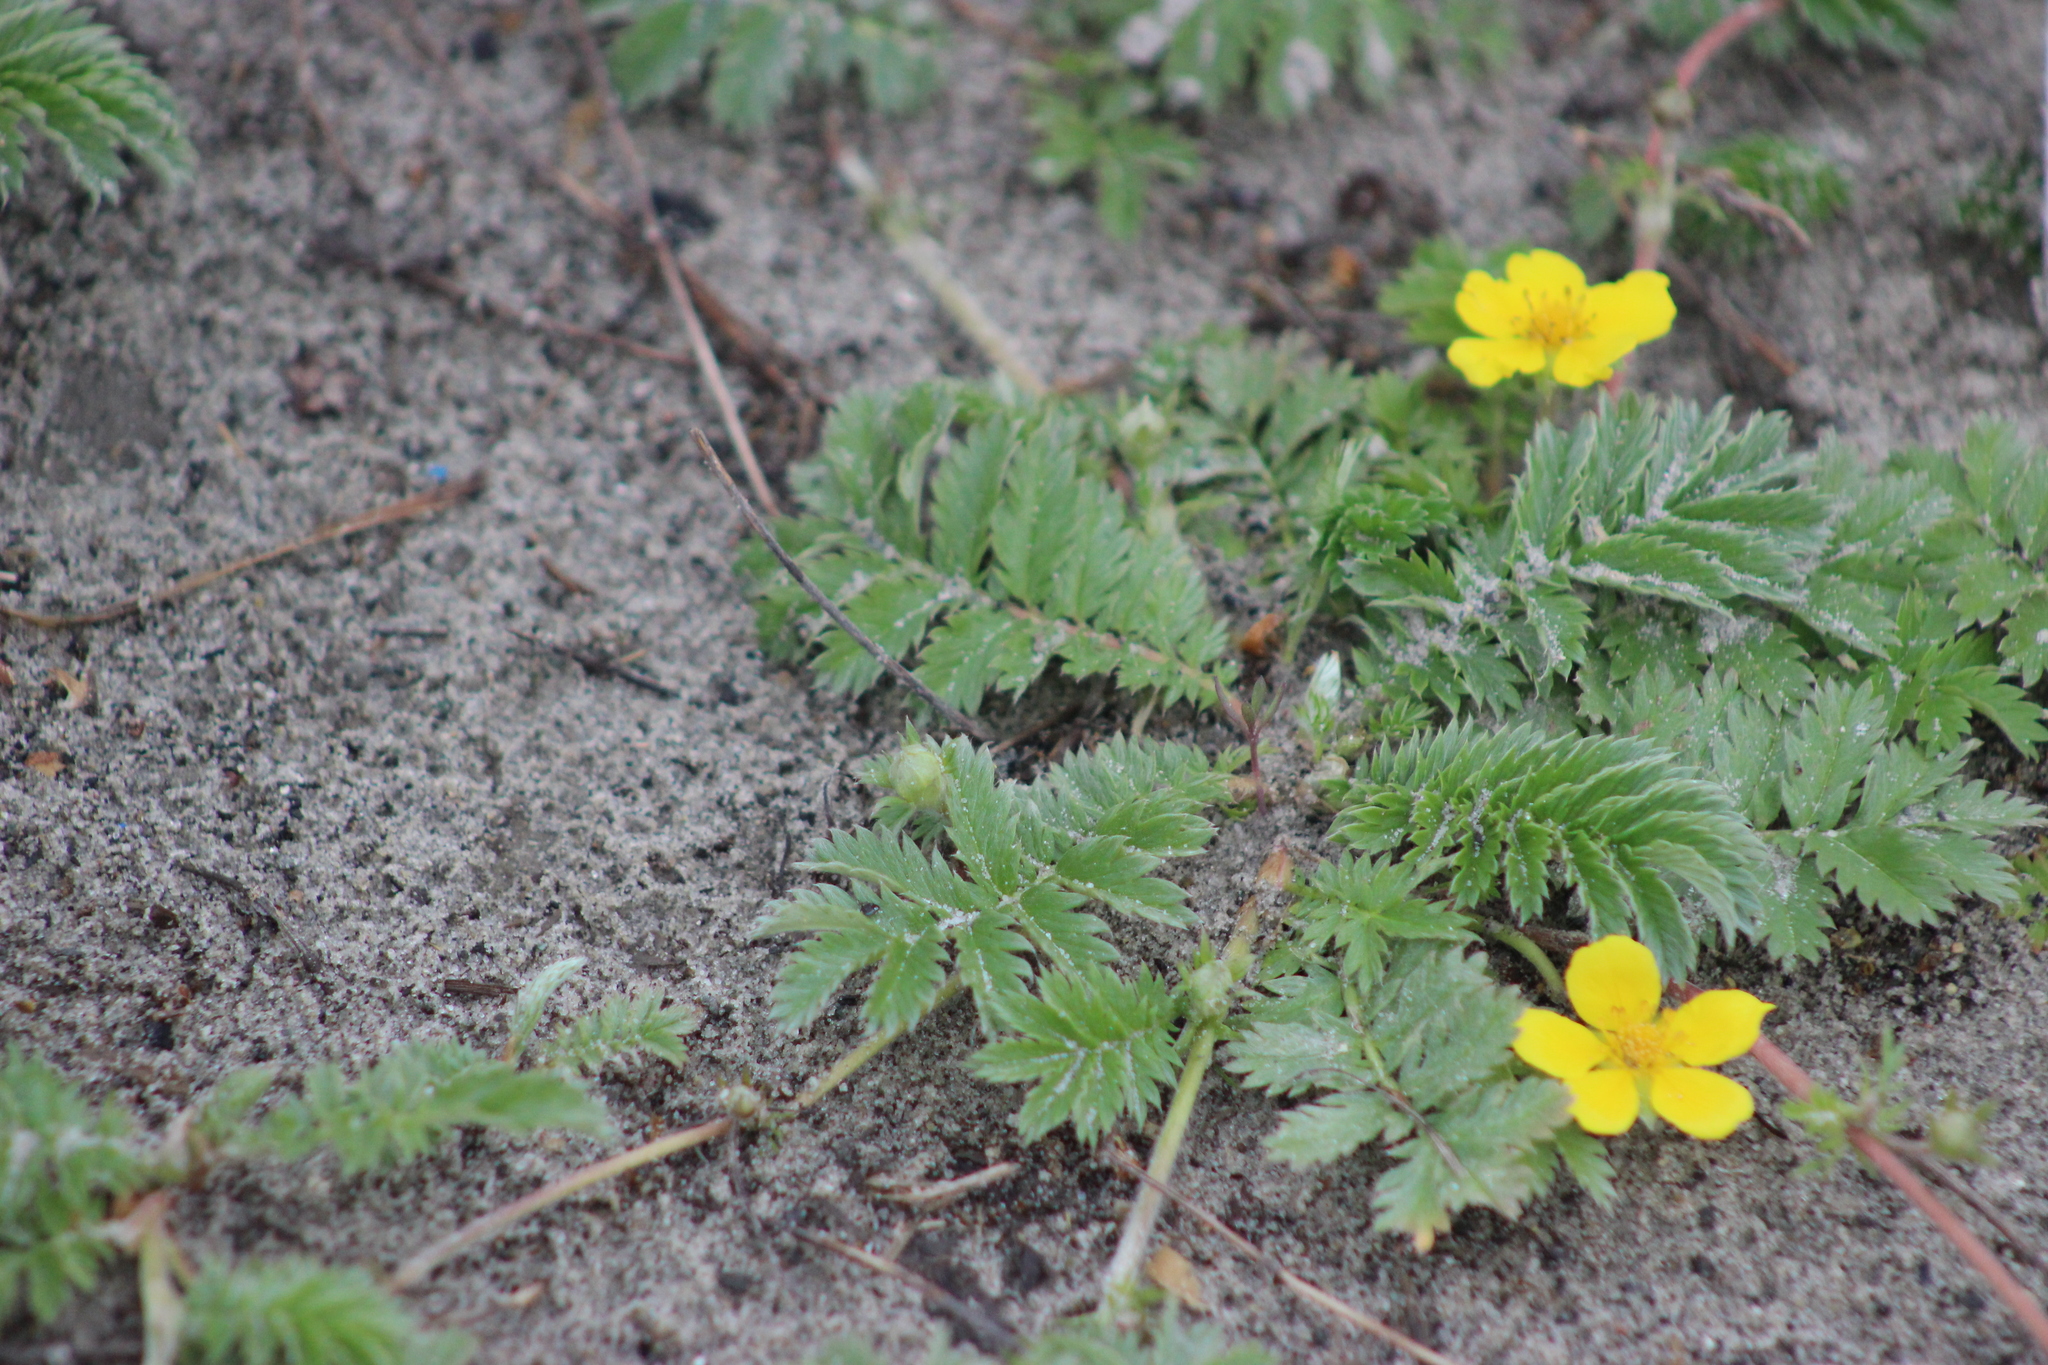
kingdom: Plantae
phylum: Tracheophyta
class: Magnoliopsida
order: Rosales
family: Rosaceae
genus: Argentina
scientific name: Argentina anserina
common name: Common silverweed
